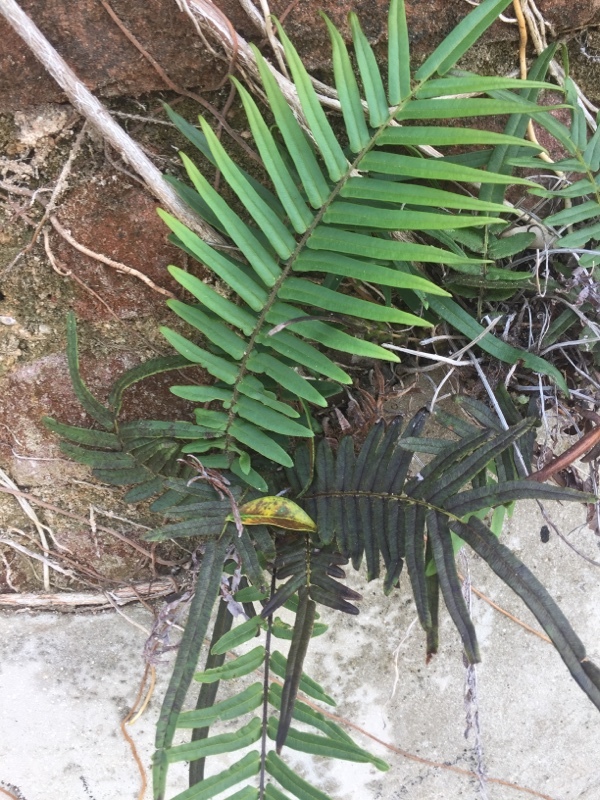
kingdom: Plantae
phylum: Tracheophyta
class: Polypodiopsida
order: Polypodiales
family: Pteridaceae
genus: Pteris
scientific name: Pteris vittata
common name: Ladder brake
